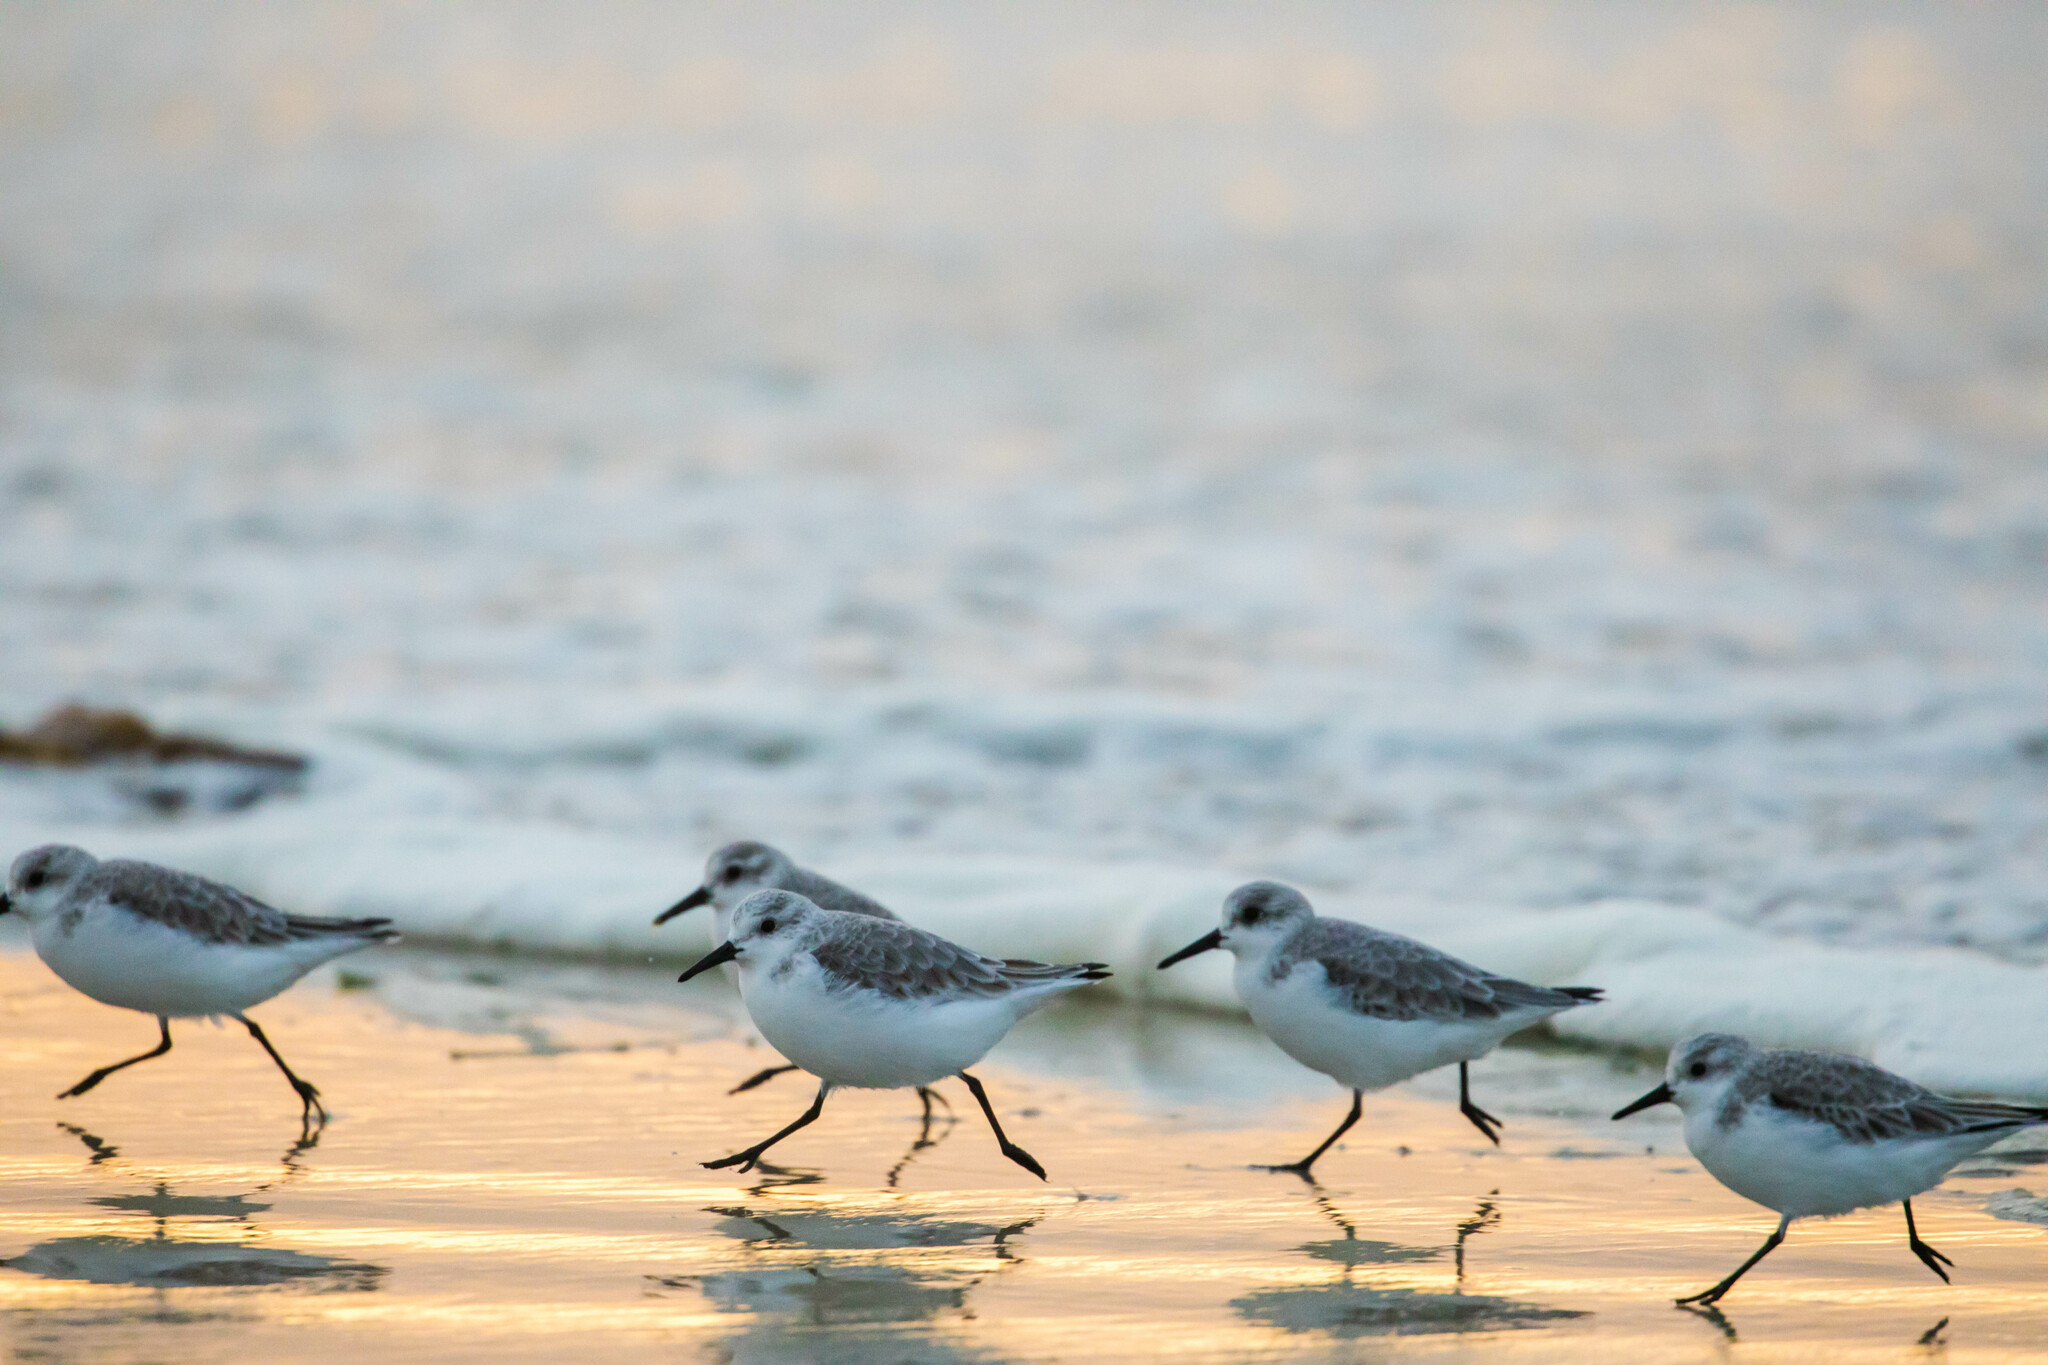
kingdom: Animalia
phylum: Chordata
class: Aves
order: Charadriiformes
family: Scolopacidae
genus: Calidris
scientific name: Calidris alba
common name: Sanderling
